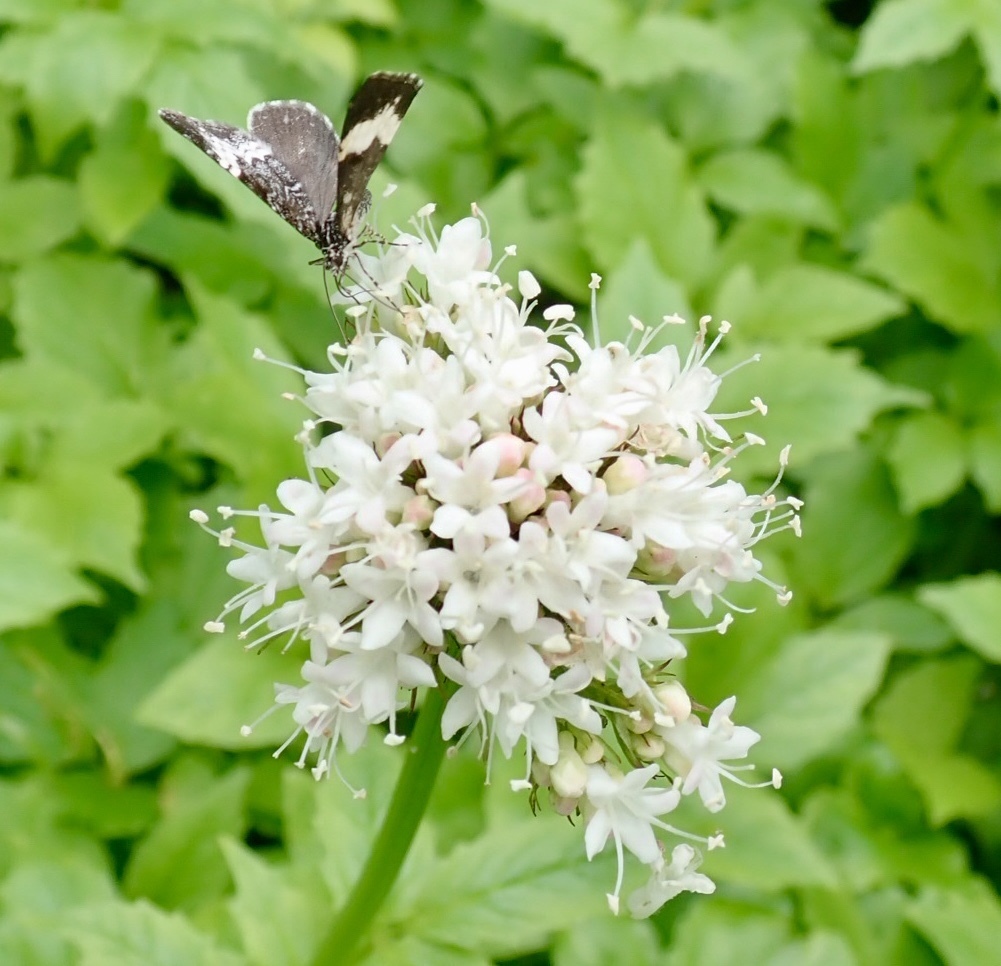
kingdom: Animalia
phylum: Arthropoda
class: Insecta
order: Lepidoptera
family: Geometridae
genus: Spargania
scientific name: Spargania luctuata
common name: White-banded carpet
